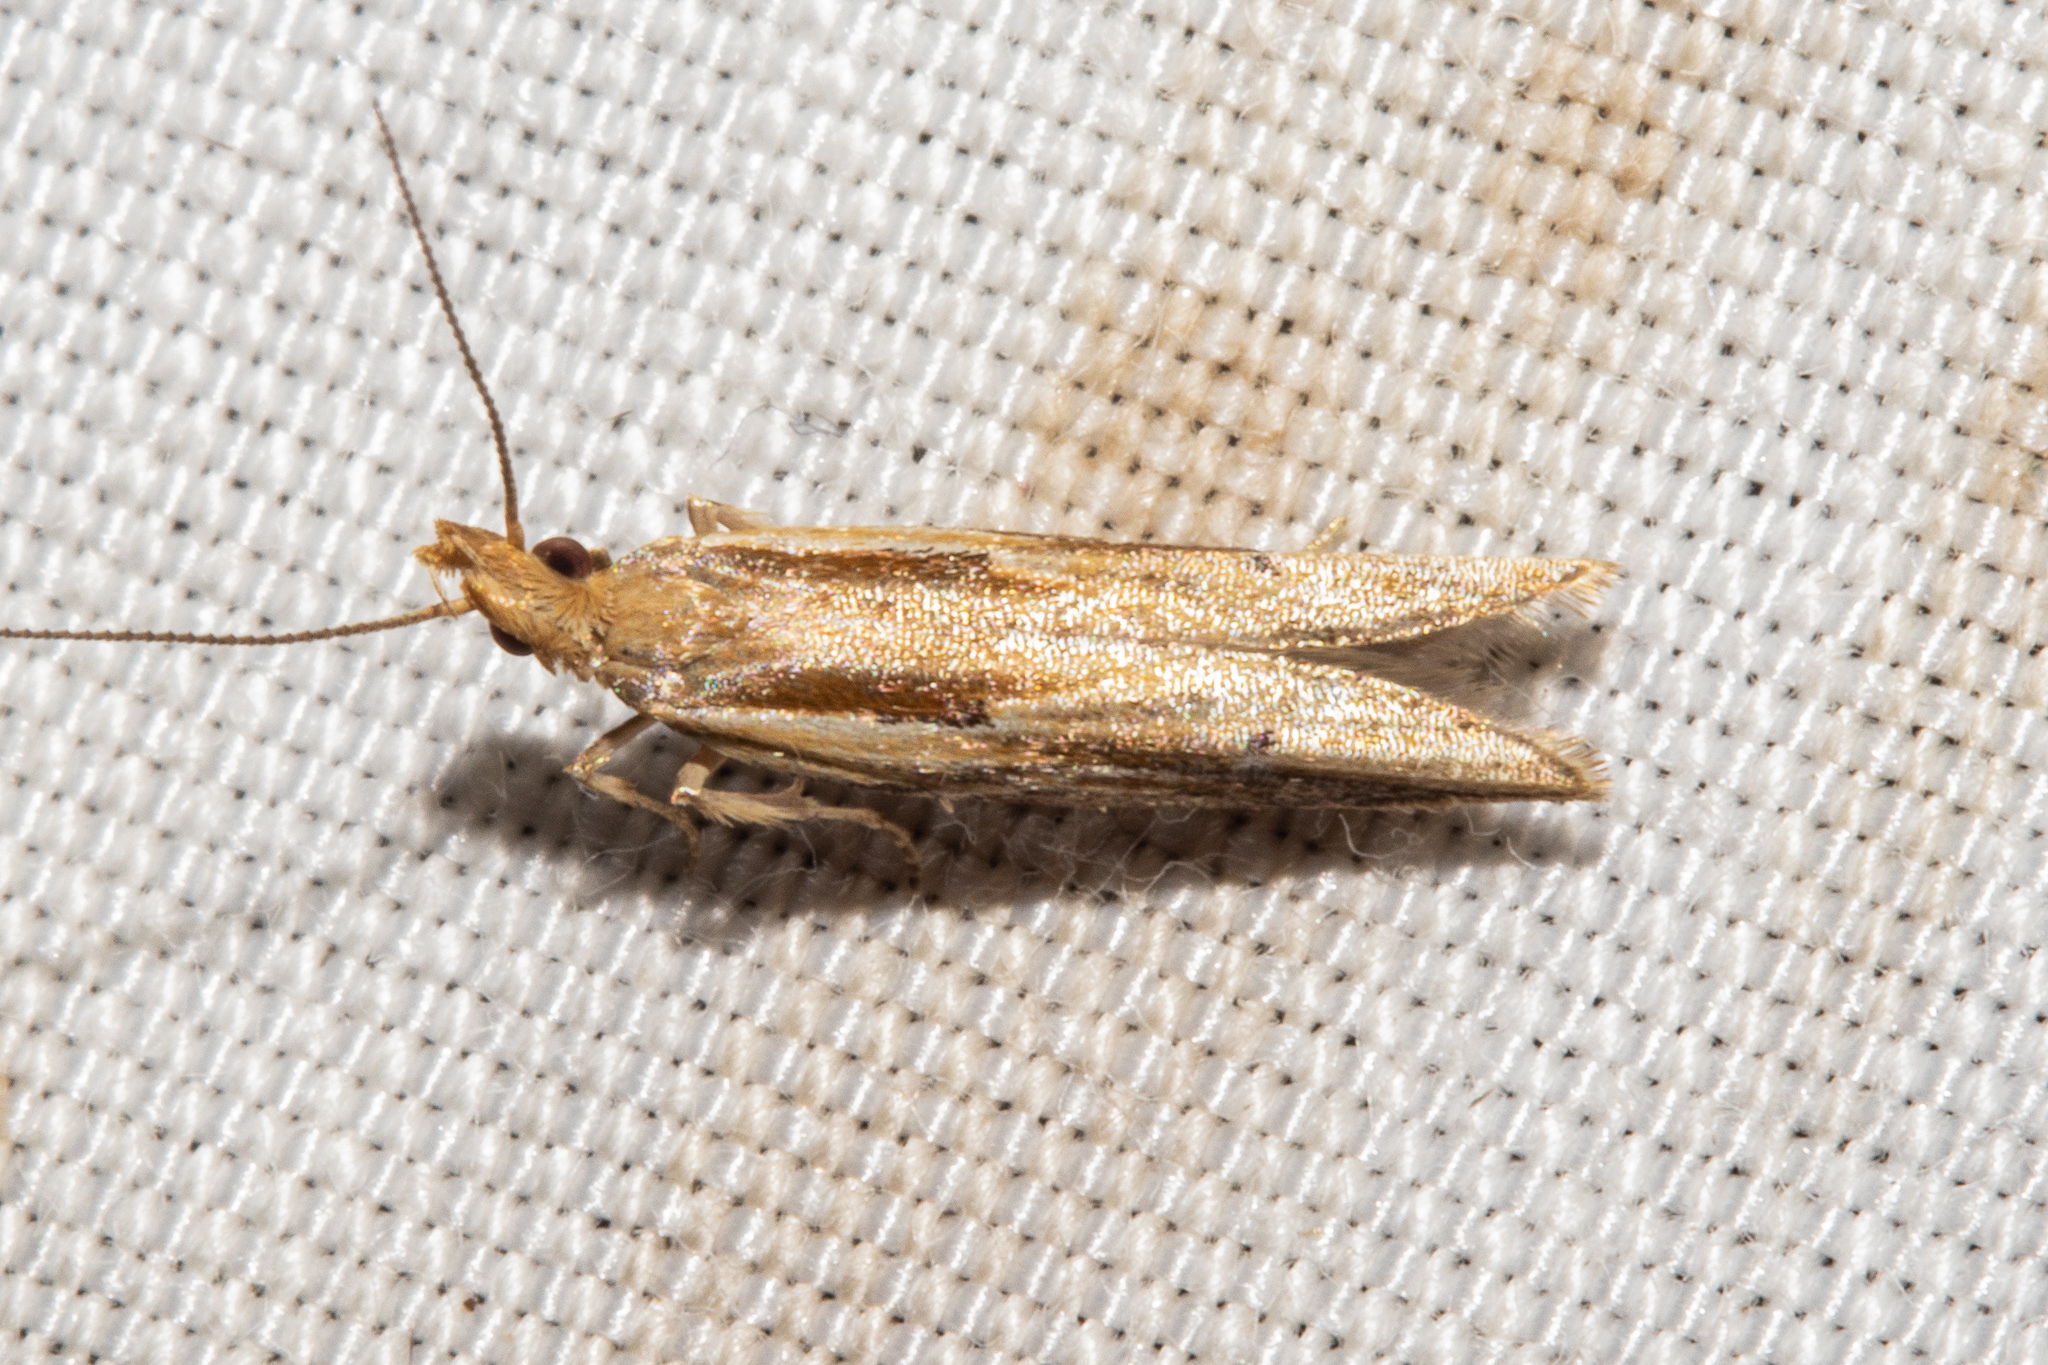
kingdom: Animalia
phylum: Arthropoda
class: Insecta
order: Lepidoptera
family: Depressariidae
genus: Eutorna
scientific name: Eutorna symmorpha
